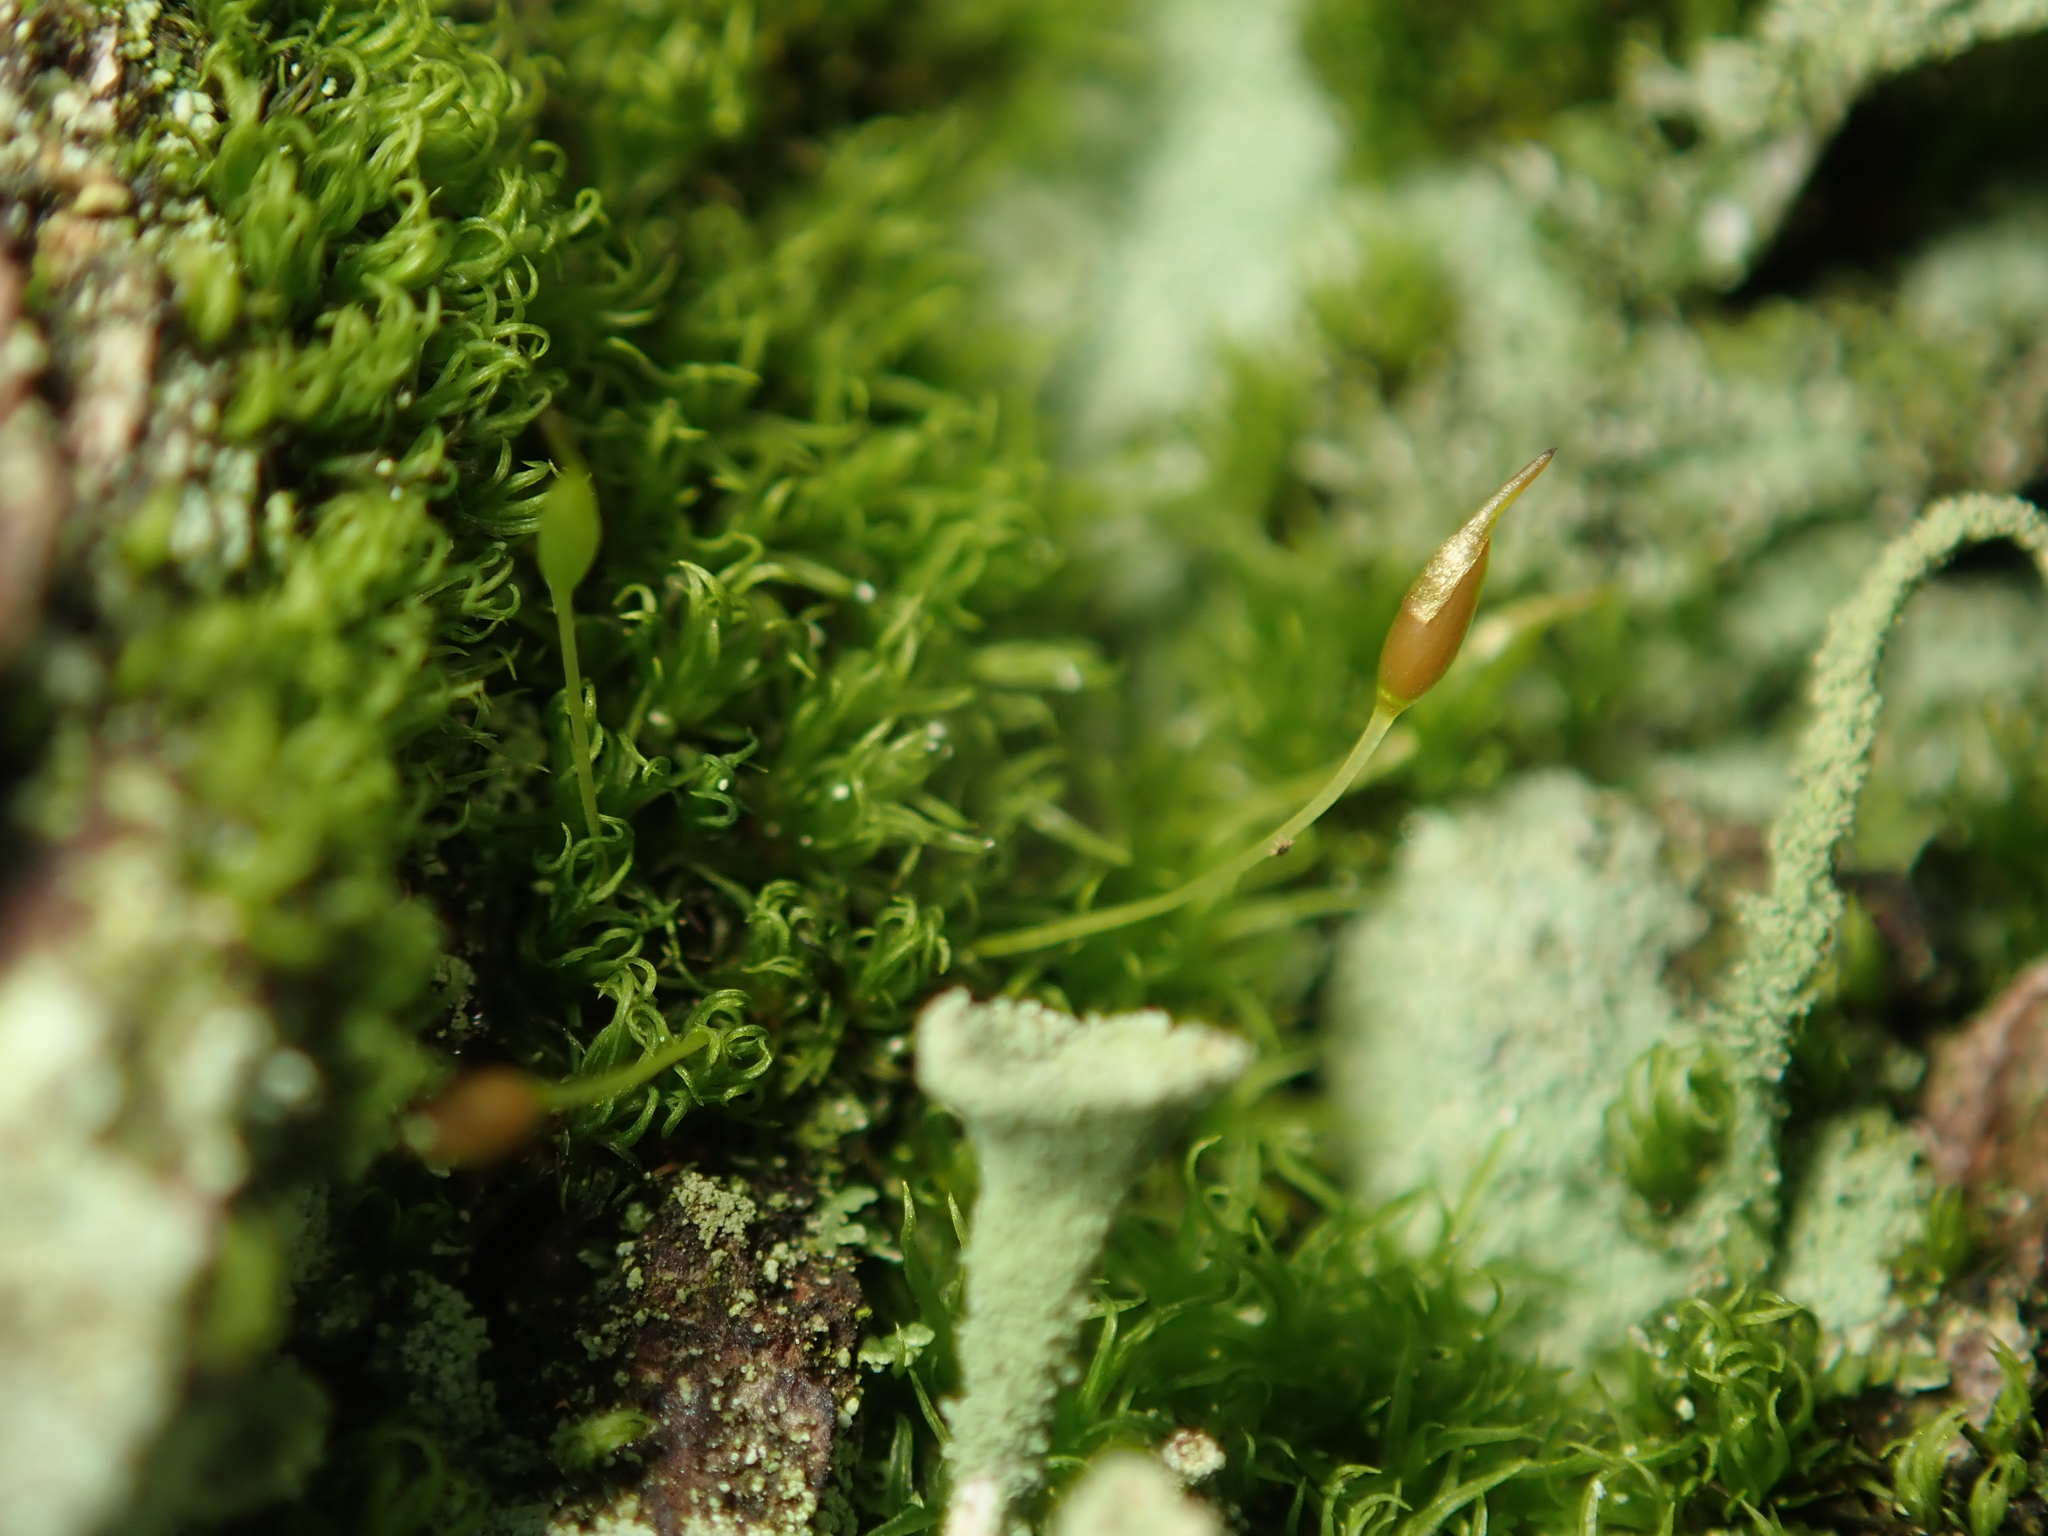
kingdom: Plantae
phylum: Bryophyta
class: Bryopsida
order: Dicranales
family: Rhabdoweisiaceae
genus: Dicranoweisia
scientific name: Dicranoweisia cirrata
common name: Common pincushion
